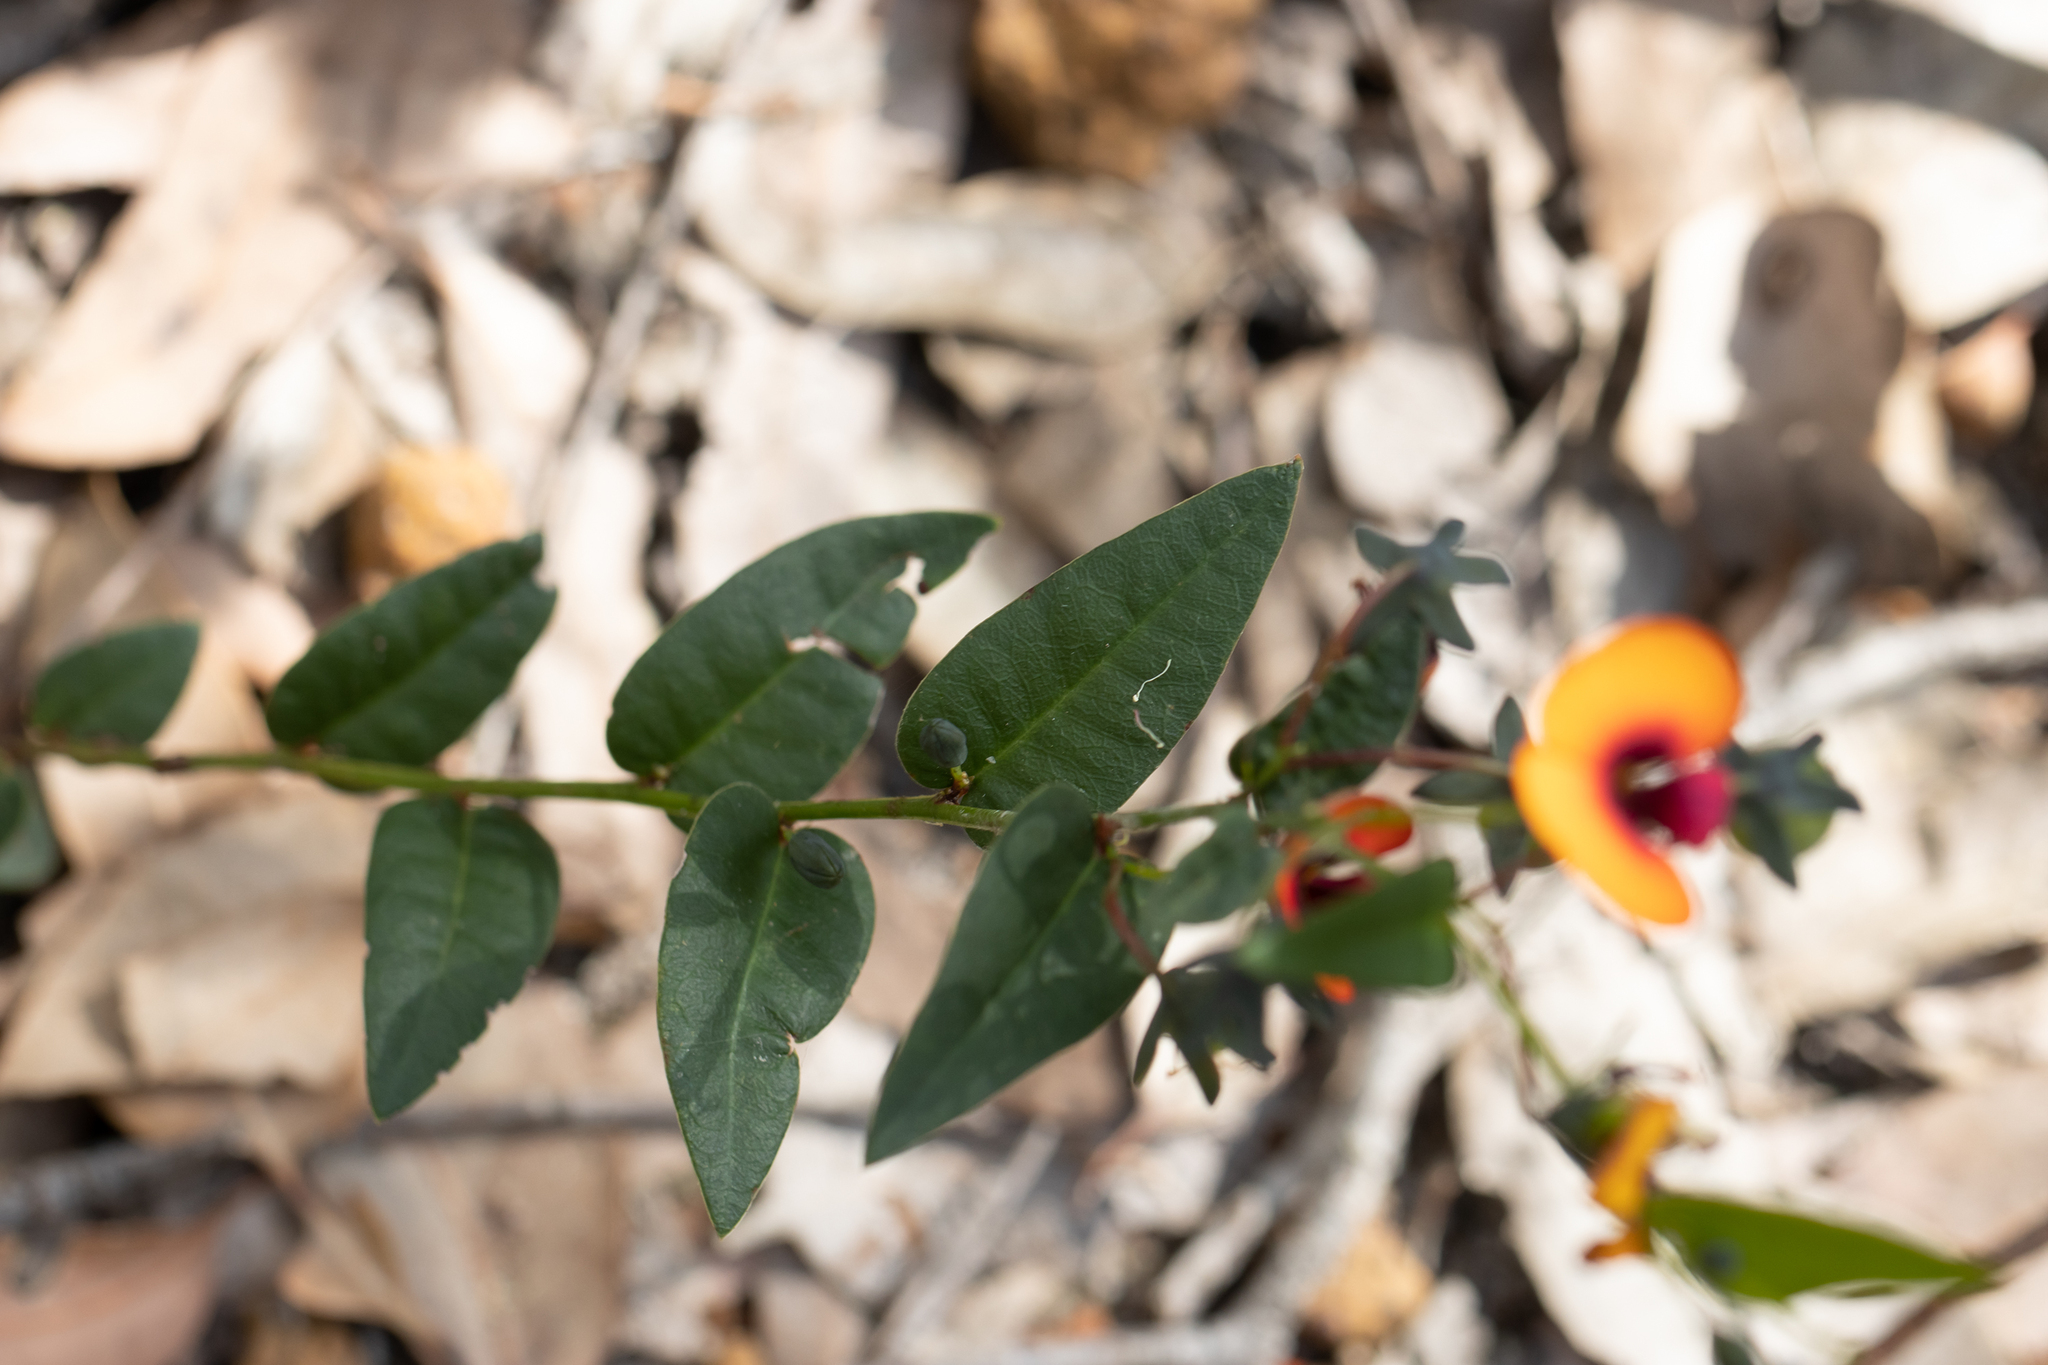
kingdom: Plantae
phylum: Tracheophyta
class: Magnoliopsida
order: Fabales
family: Fabaceae
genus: Gompholobium
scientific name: Gompholobium ovatum
